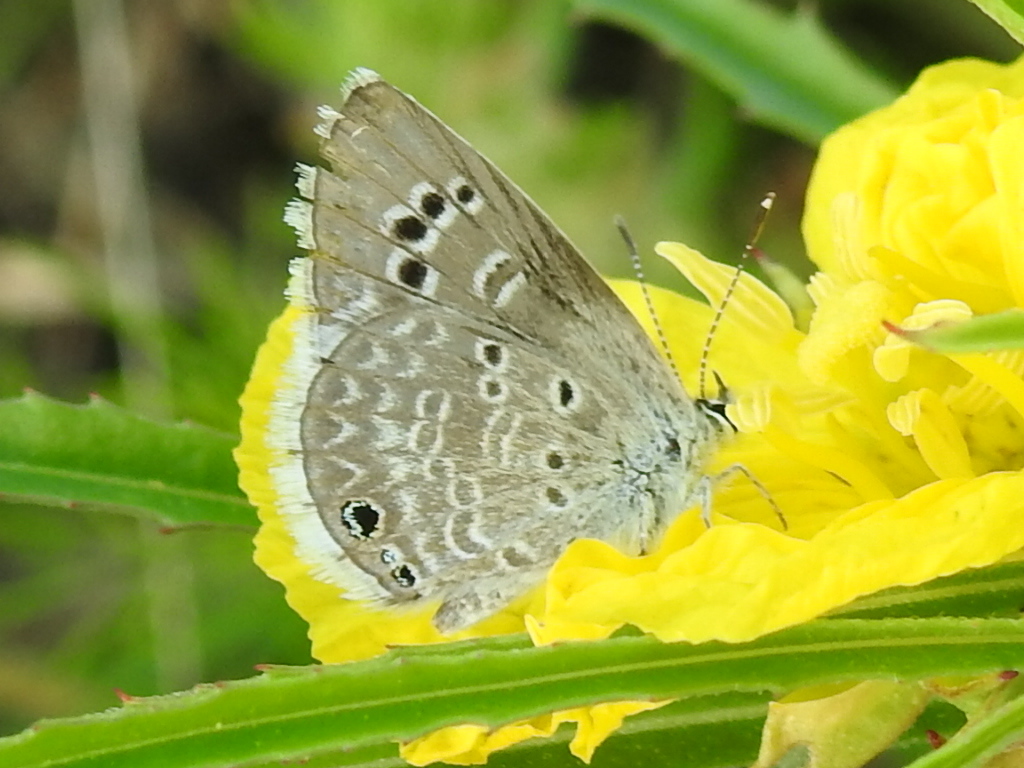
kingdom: Animalia
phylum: Arthropoda
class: Insecta
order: Lepidoptera
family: Lycaenidae
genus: Echinargus
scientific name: Echinargus isola
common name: Reakirt's blue
